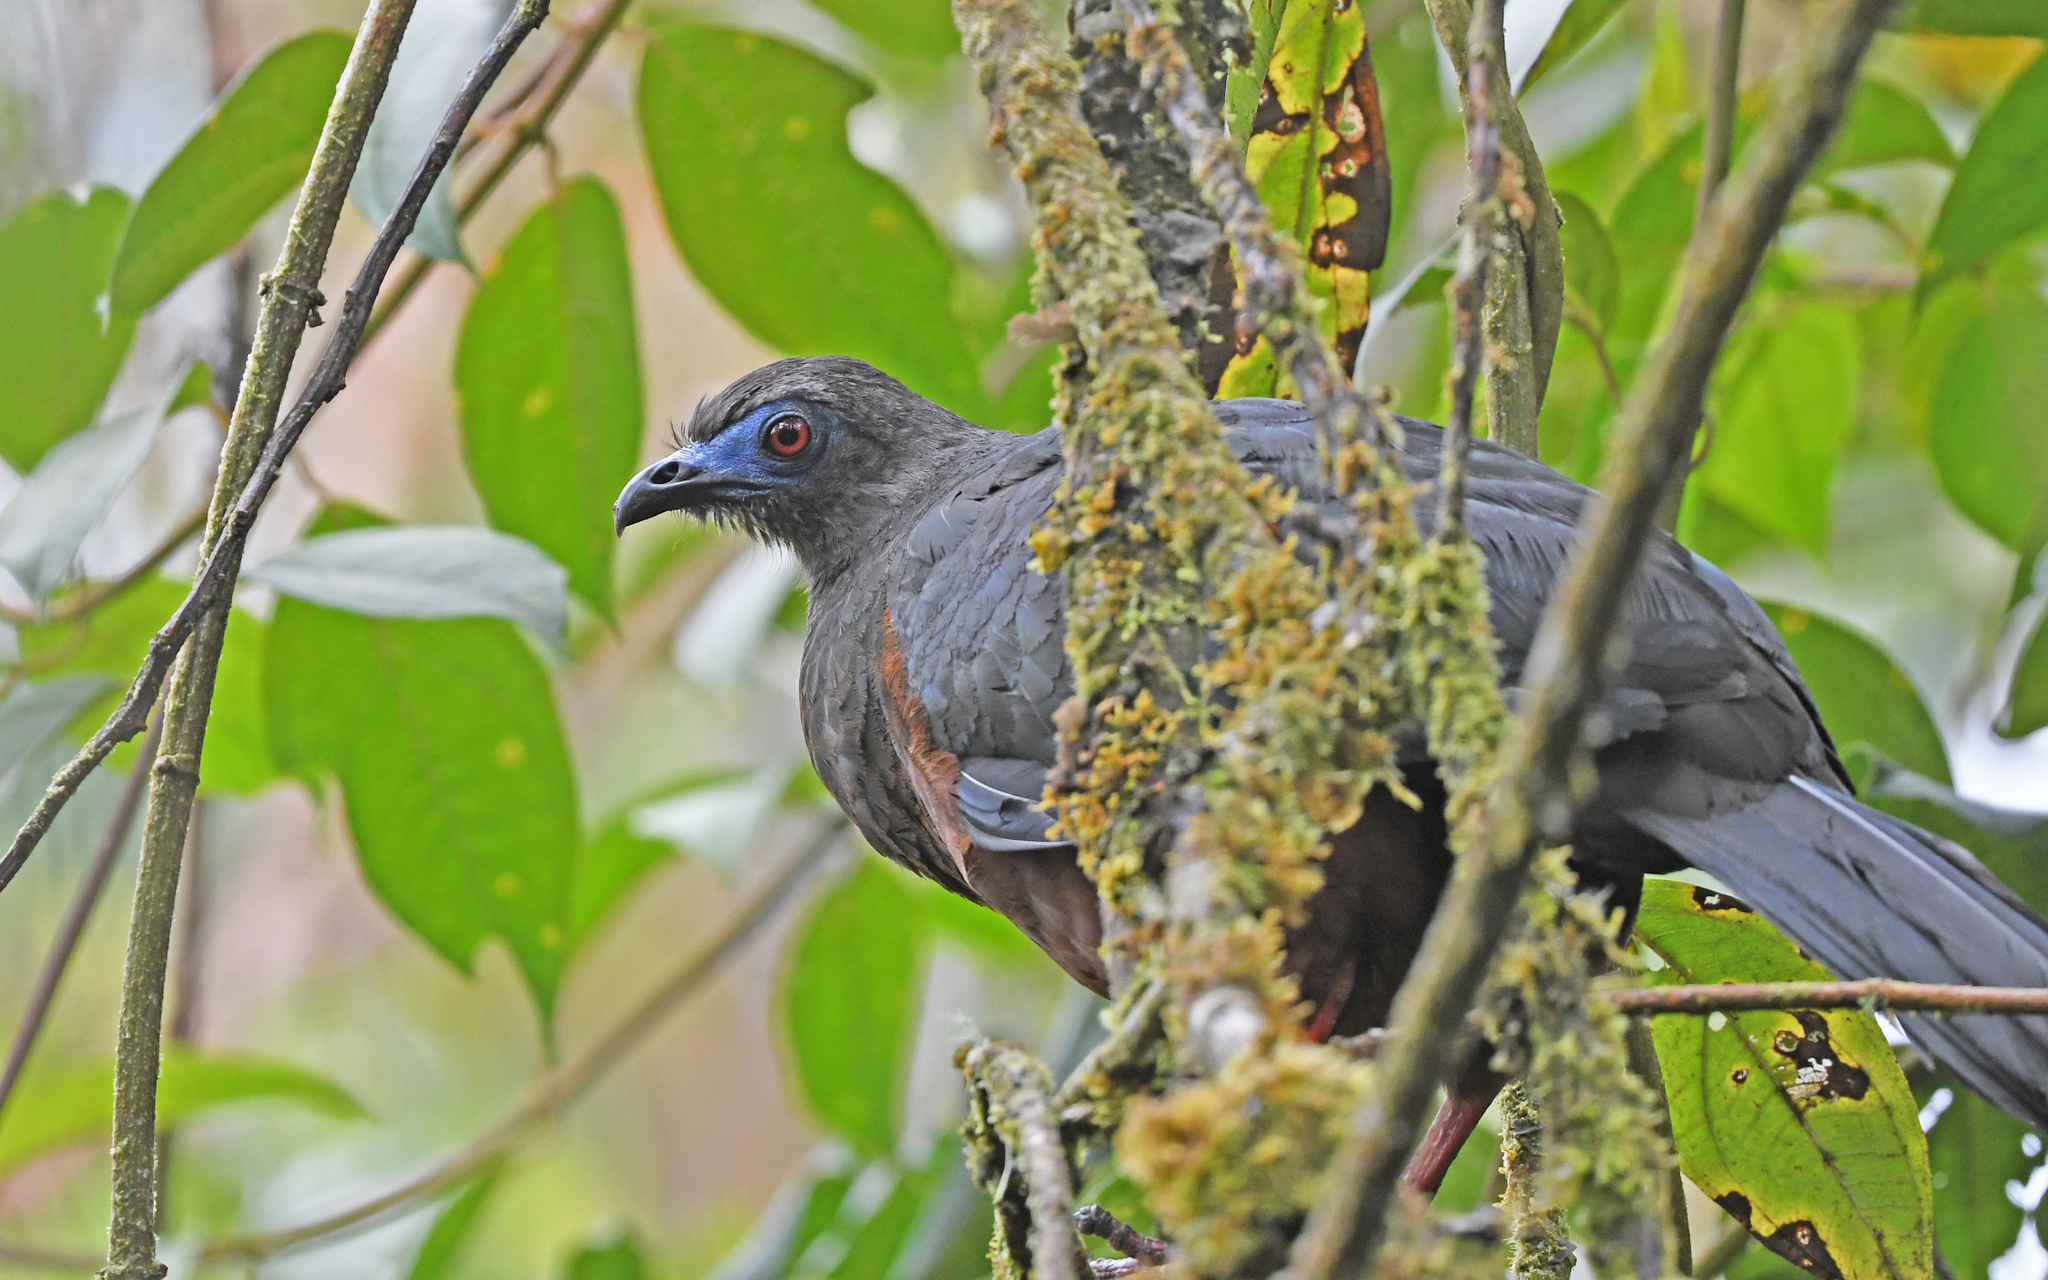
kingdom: Animalia
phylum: Chordata
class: Aves
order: Galliformes
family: Cracidae
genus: Chamaepetes
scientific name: Chamaepetes goudotii
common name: Sickle-winged guan
